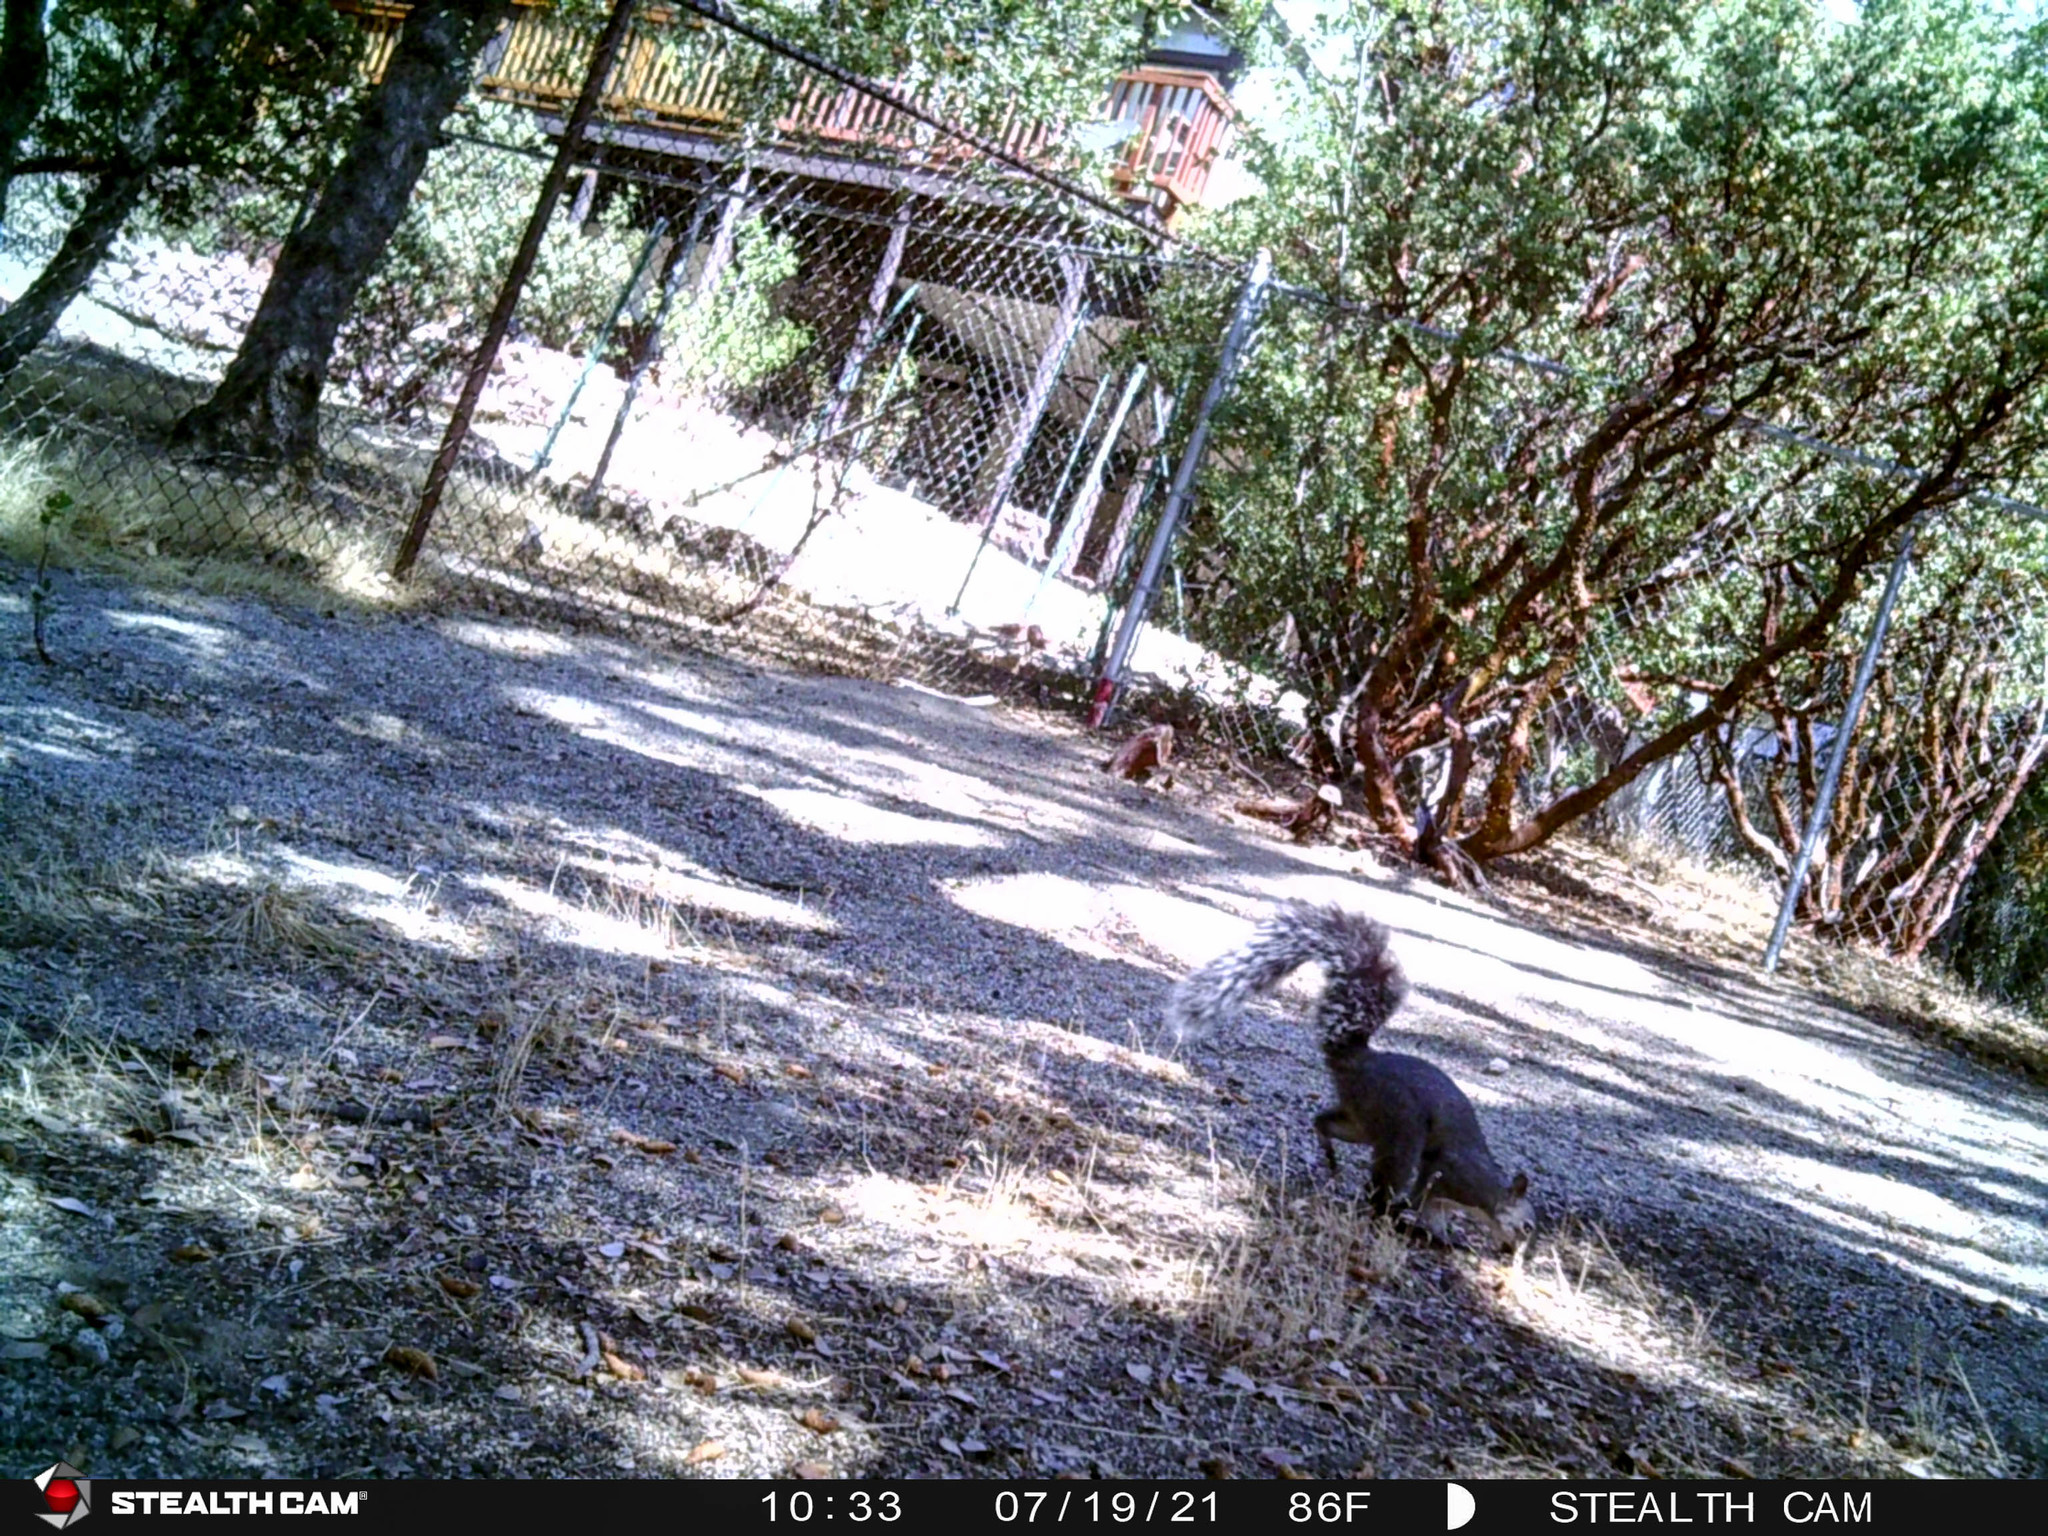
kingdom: Animalia
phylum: Chordata
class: Mammalia
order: Rodentia
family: Sciuridae
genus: Sciurus
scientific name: Sciurus griseus
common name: Western gray squirrel
